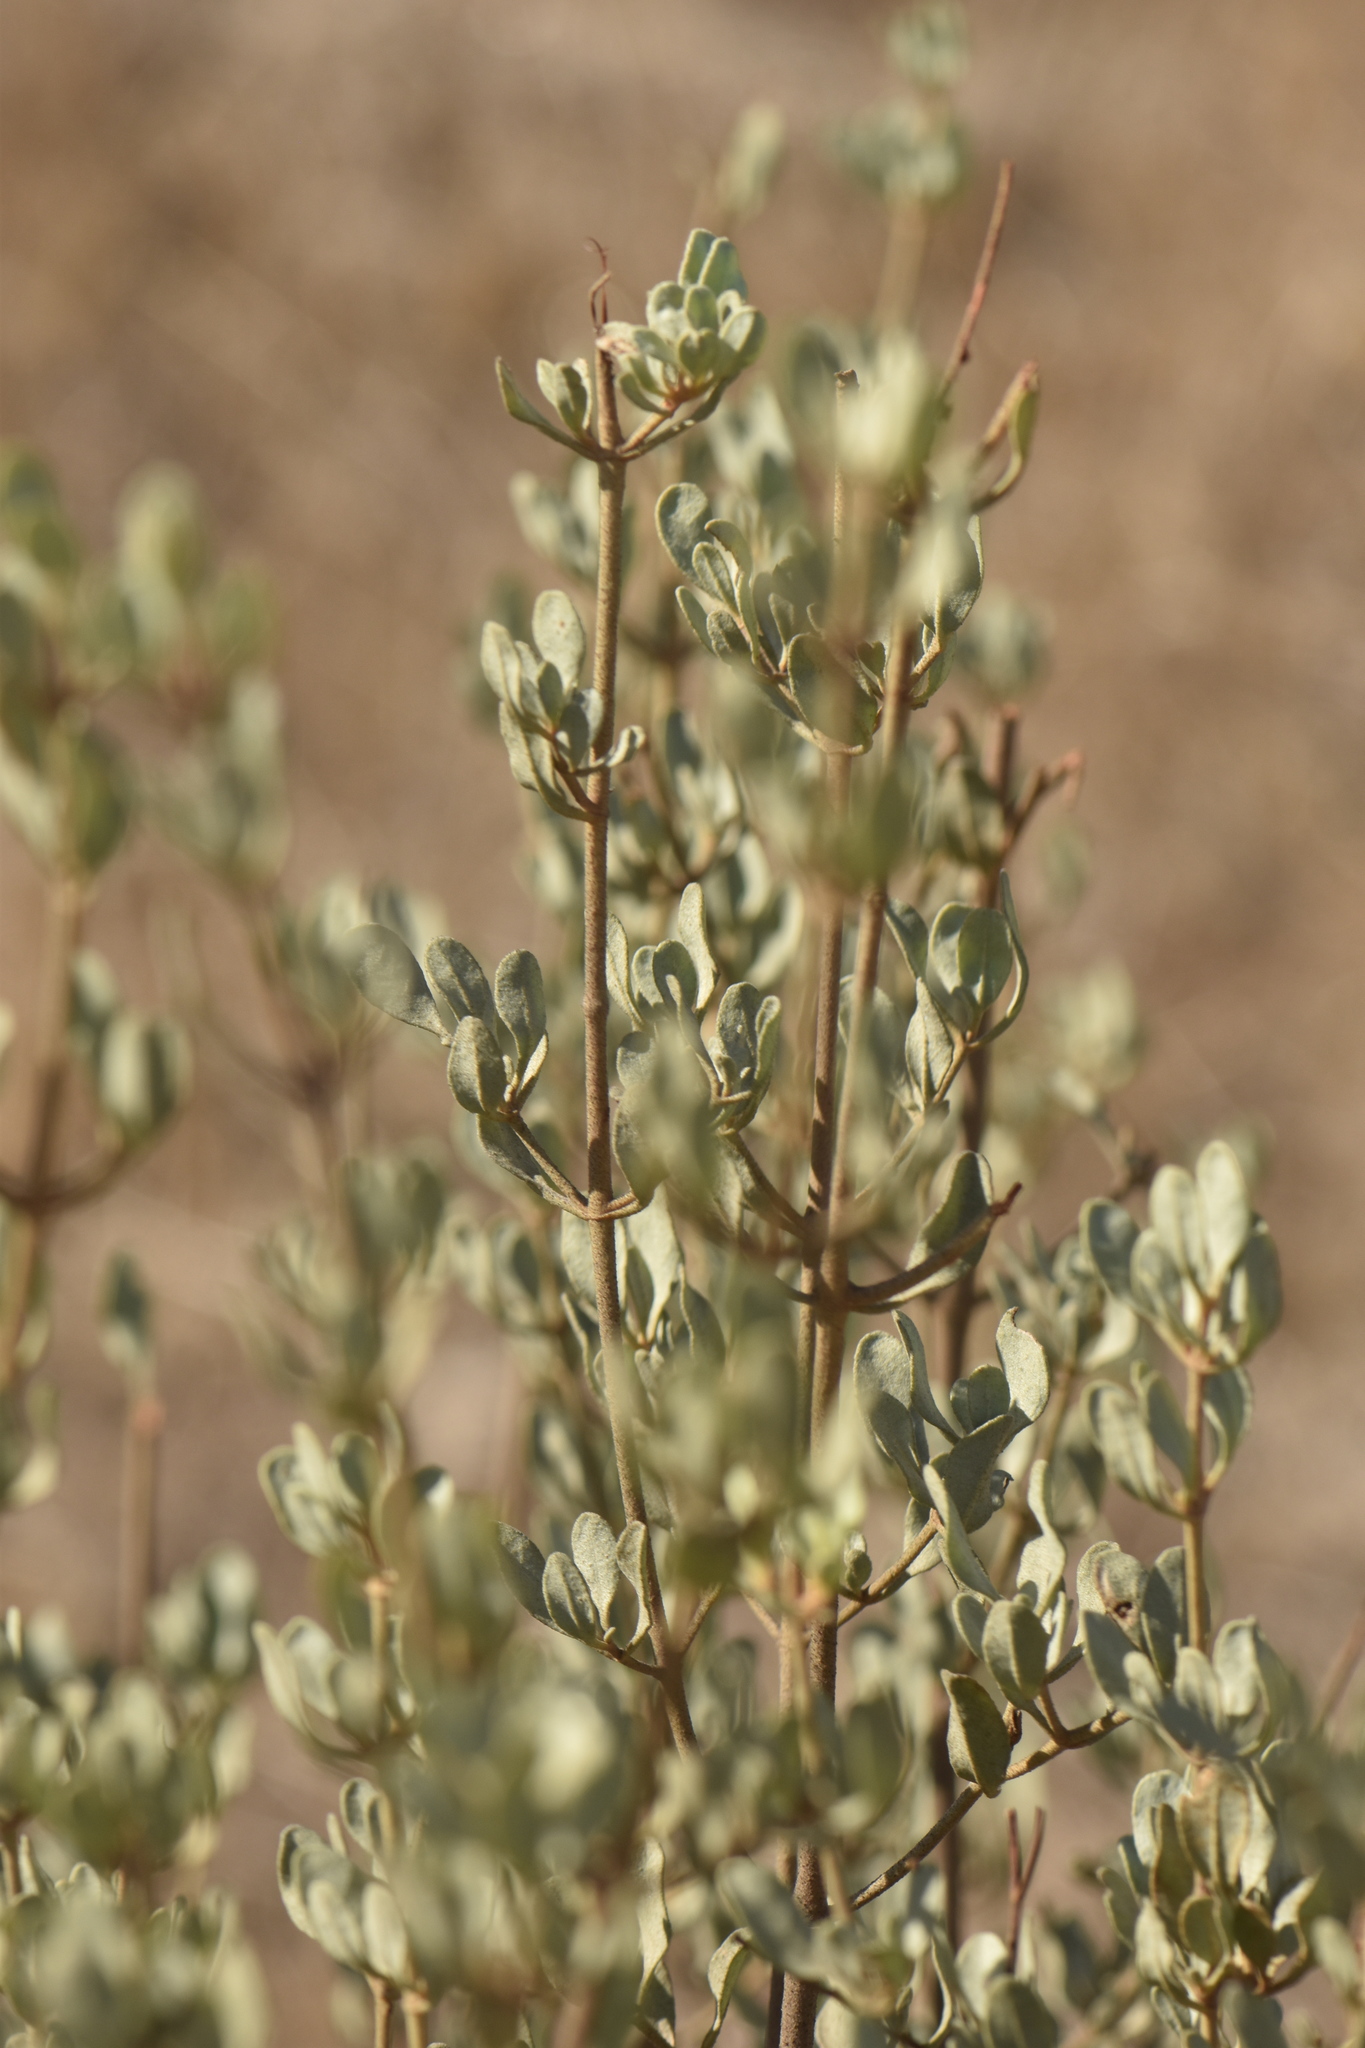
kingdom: Plantae
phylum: Tracheophyta
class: Magnoliopsida
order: Malvales
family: Cistaceae
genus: Halimium
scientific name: Halimium halimifolium
